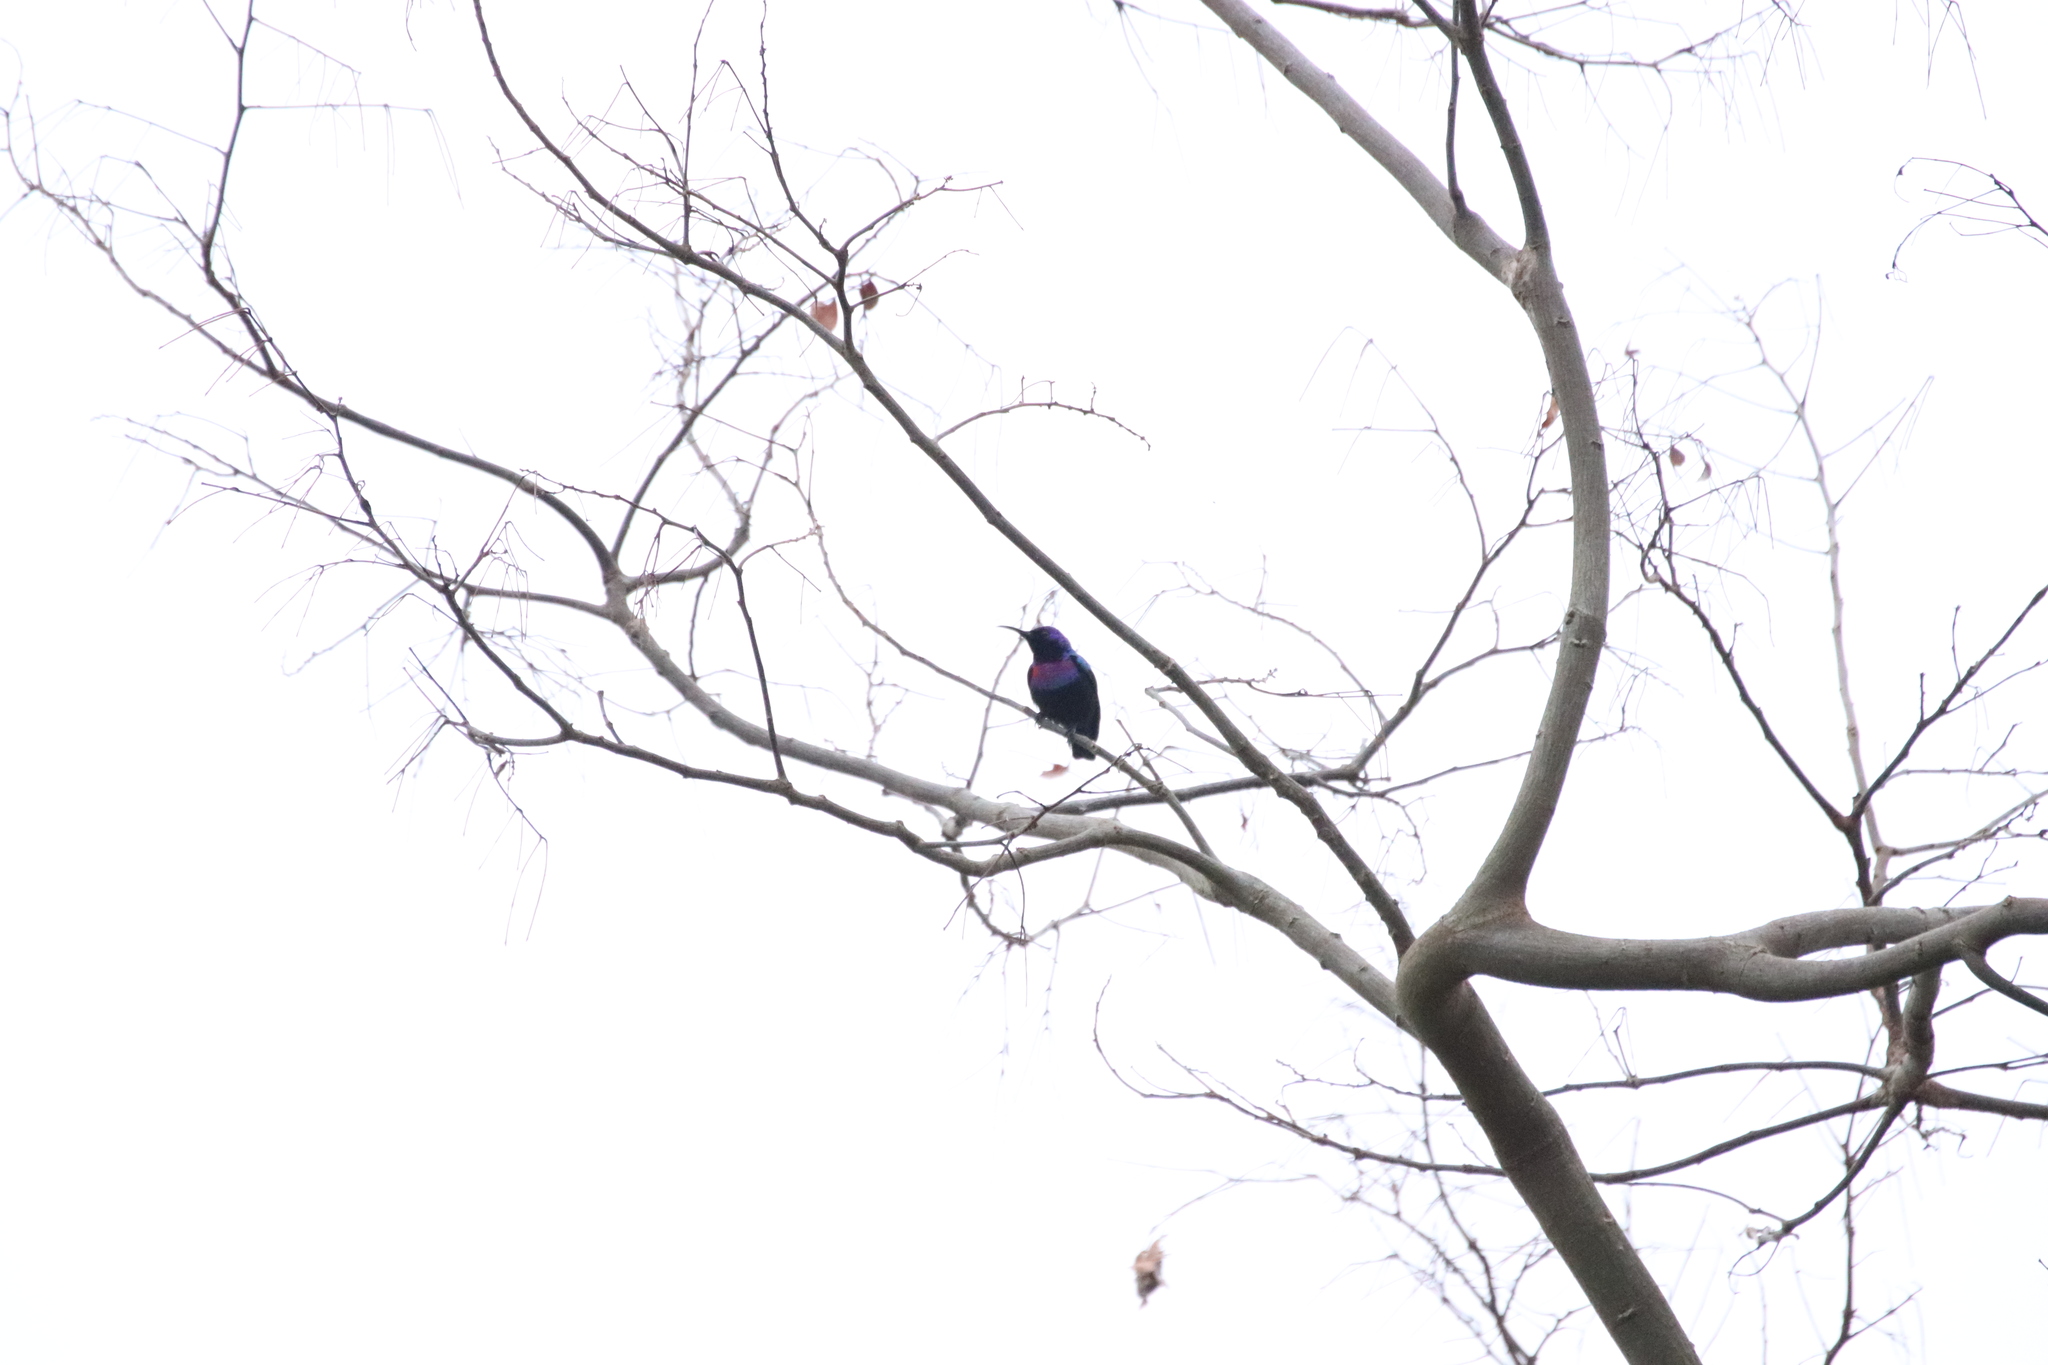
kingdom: Animalia
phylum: Chordata
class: Aves
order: Passeriformes
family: Nectariniidae
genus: Cinnyris
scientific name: Cinnyris coccinigastrus
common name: Splendid sunbird
